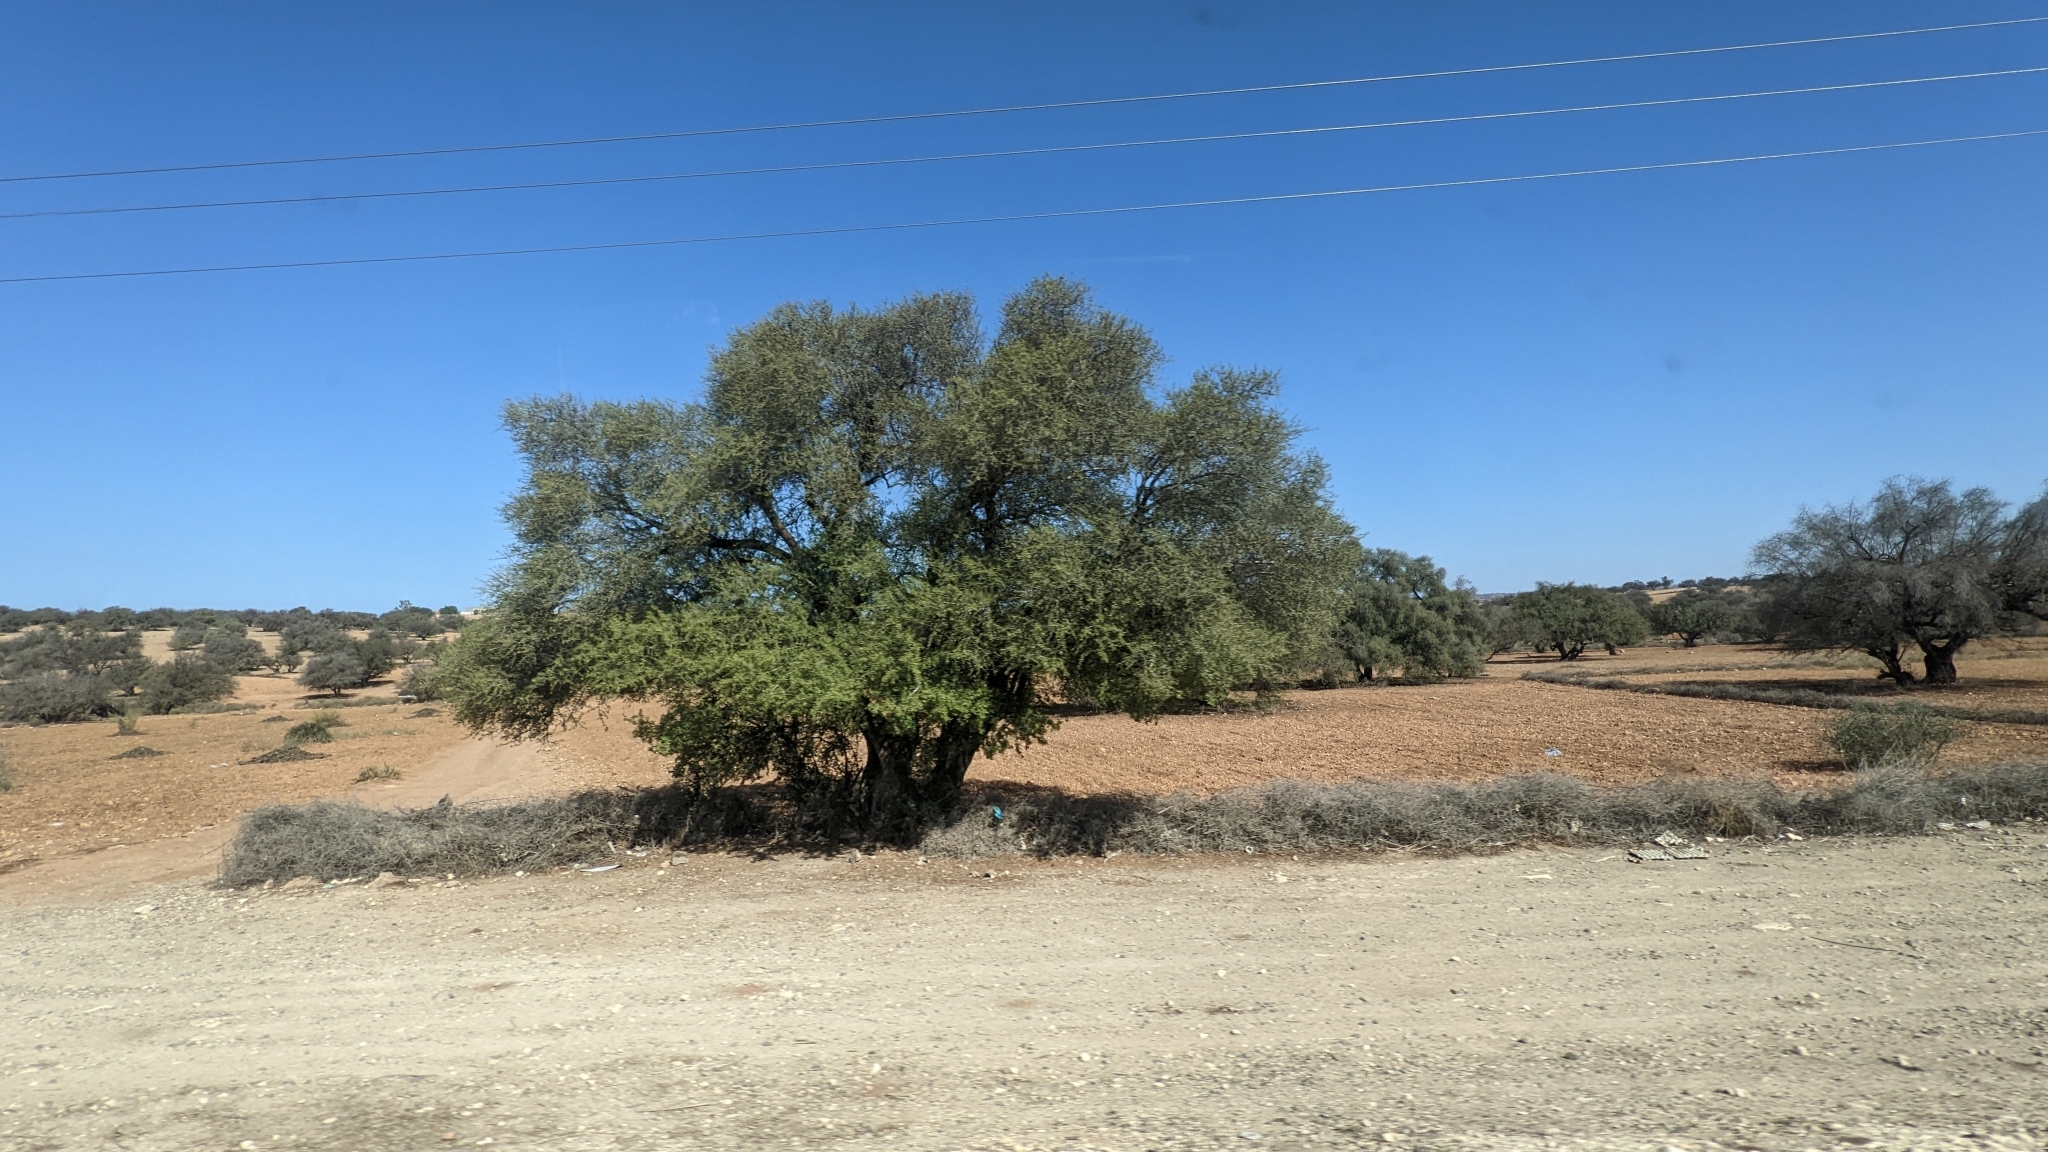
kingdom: Plantae
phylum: Tracheophyta
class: Magnoliopsida
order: Ericales
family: Sapotaceae
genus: Sideroxylon
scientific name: Sideroxylon spinosum
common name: Argan
